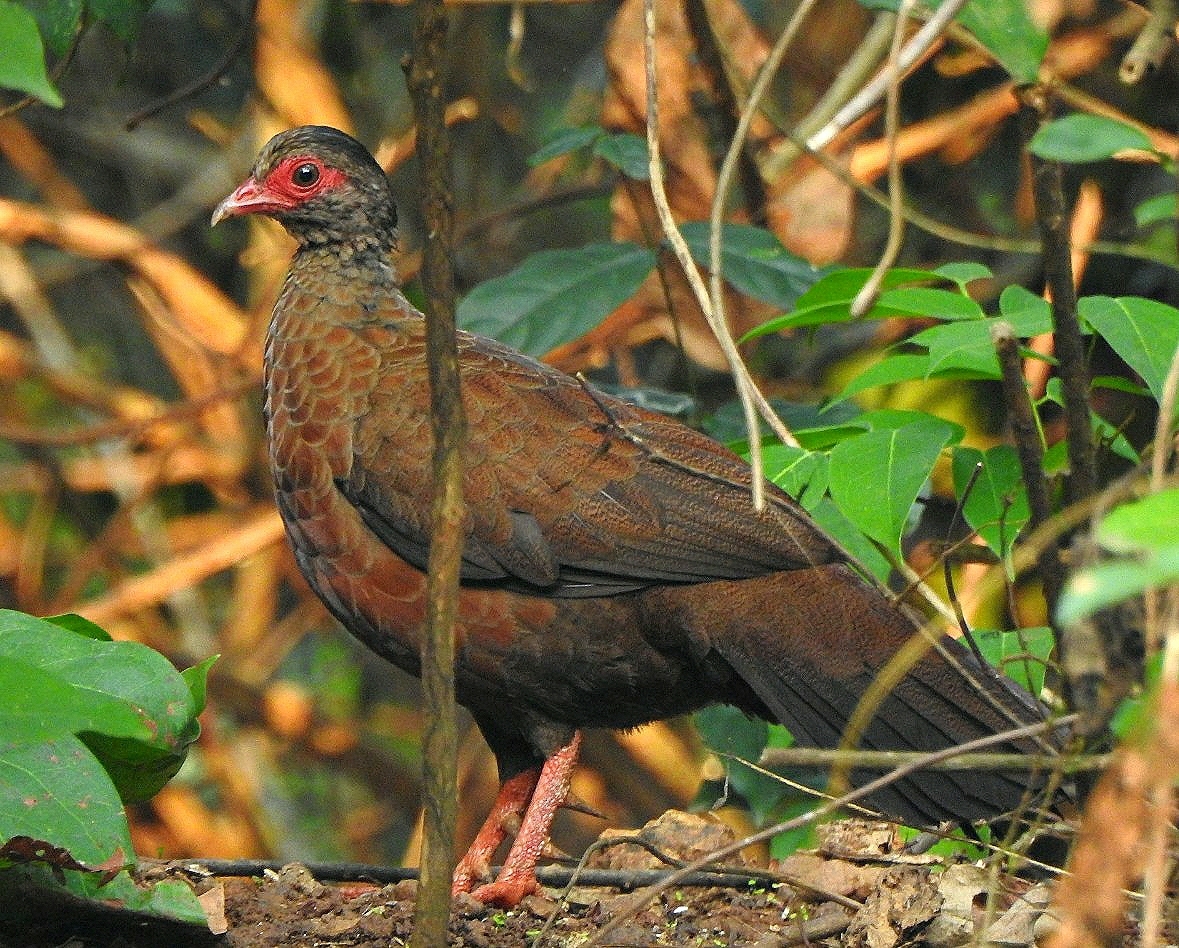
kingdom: Animalia
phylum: Chordata
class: Aves
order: Galliformes
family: Phasianidae
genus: Galloperdix
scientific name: Galloperdix spadicea
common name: Red spurfowl
